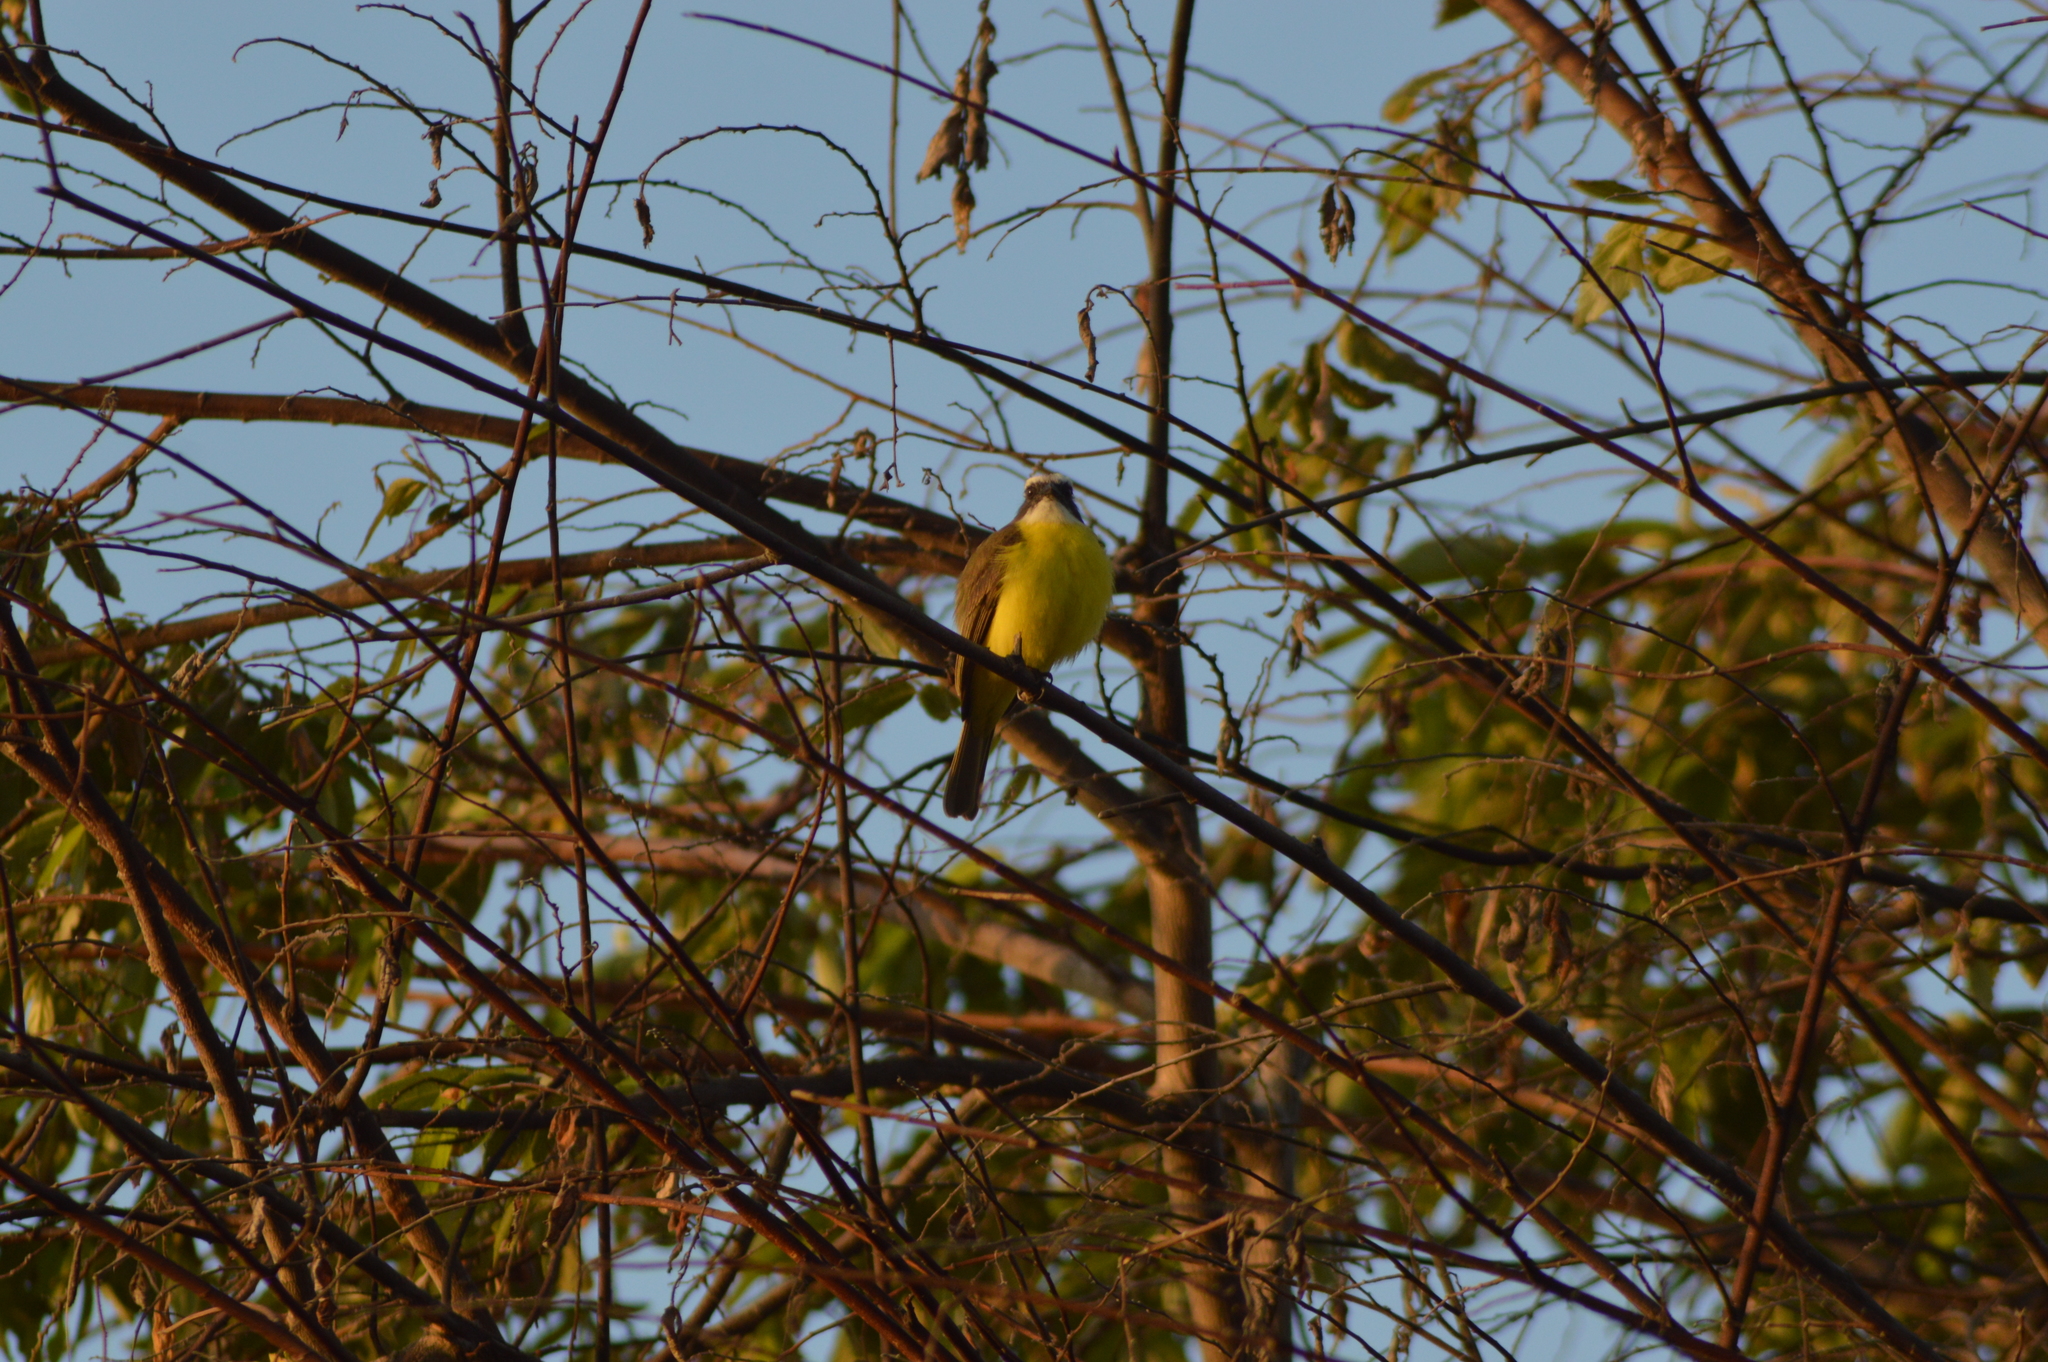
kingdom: Animalia
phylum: Chordata
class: Aves
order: Passeriformes
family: Tyrannidae
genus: Myiozetetes
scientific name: Myiozetetes similis
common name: Social flycatcher
